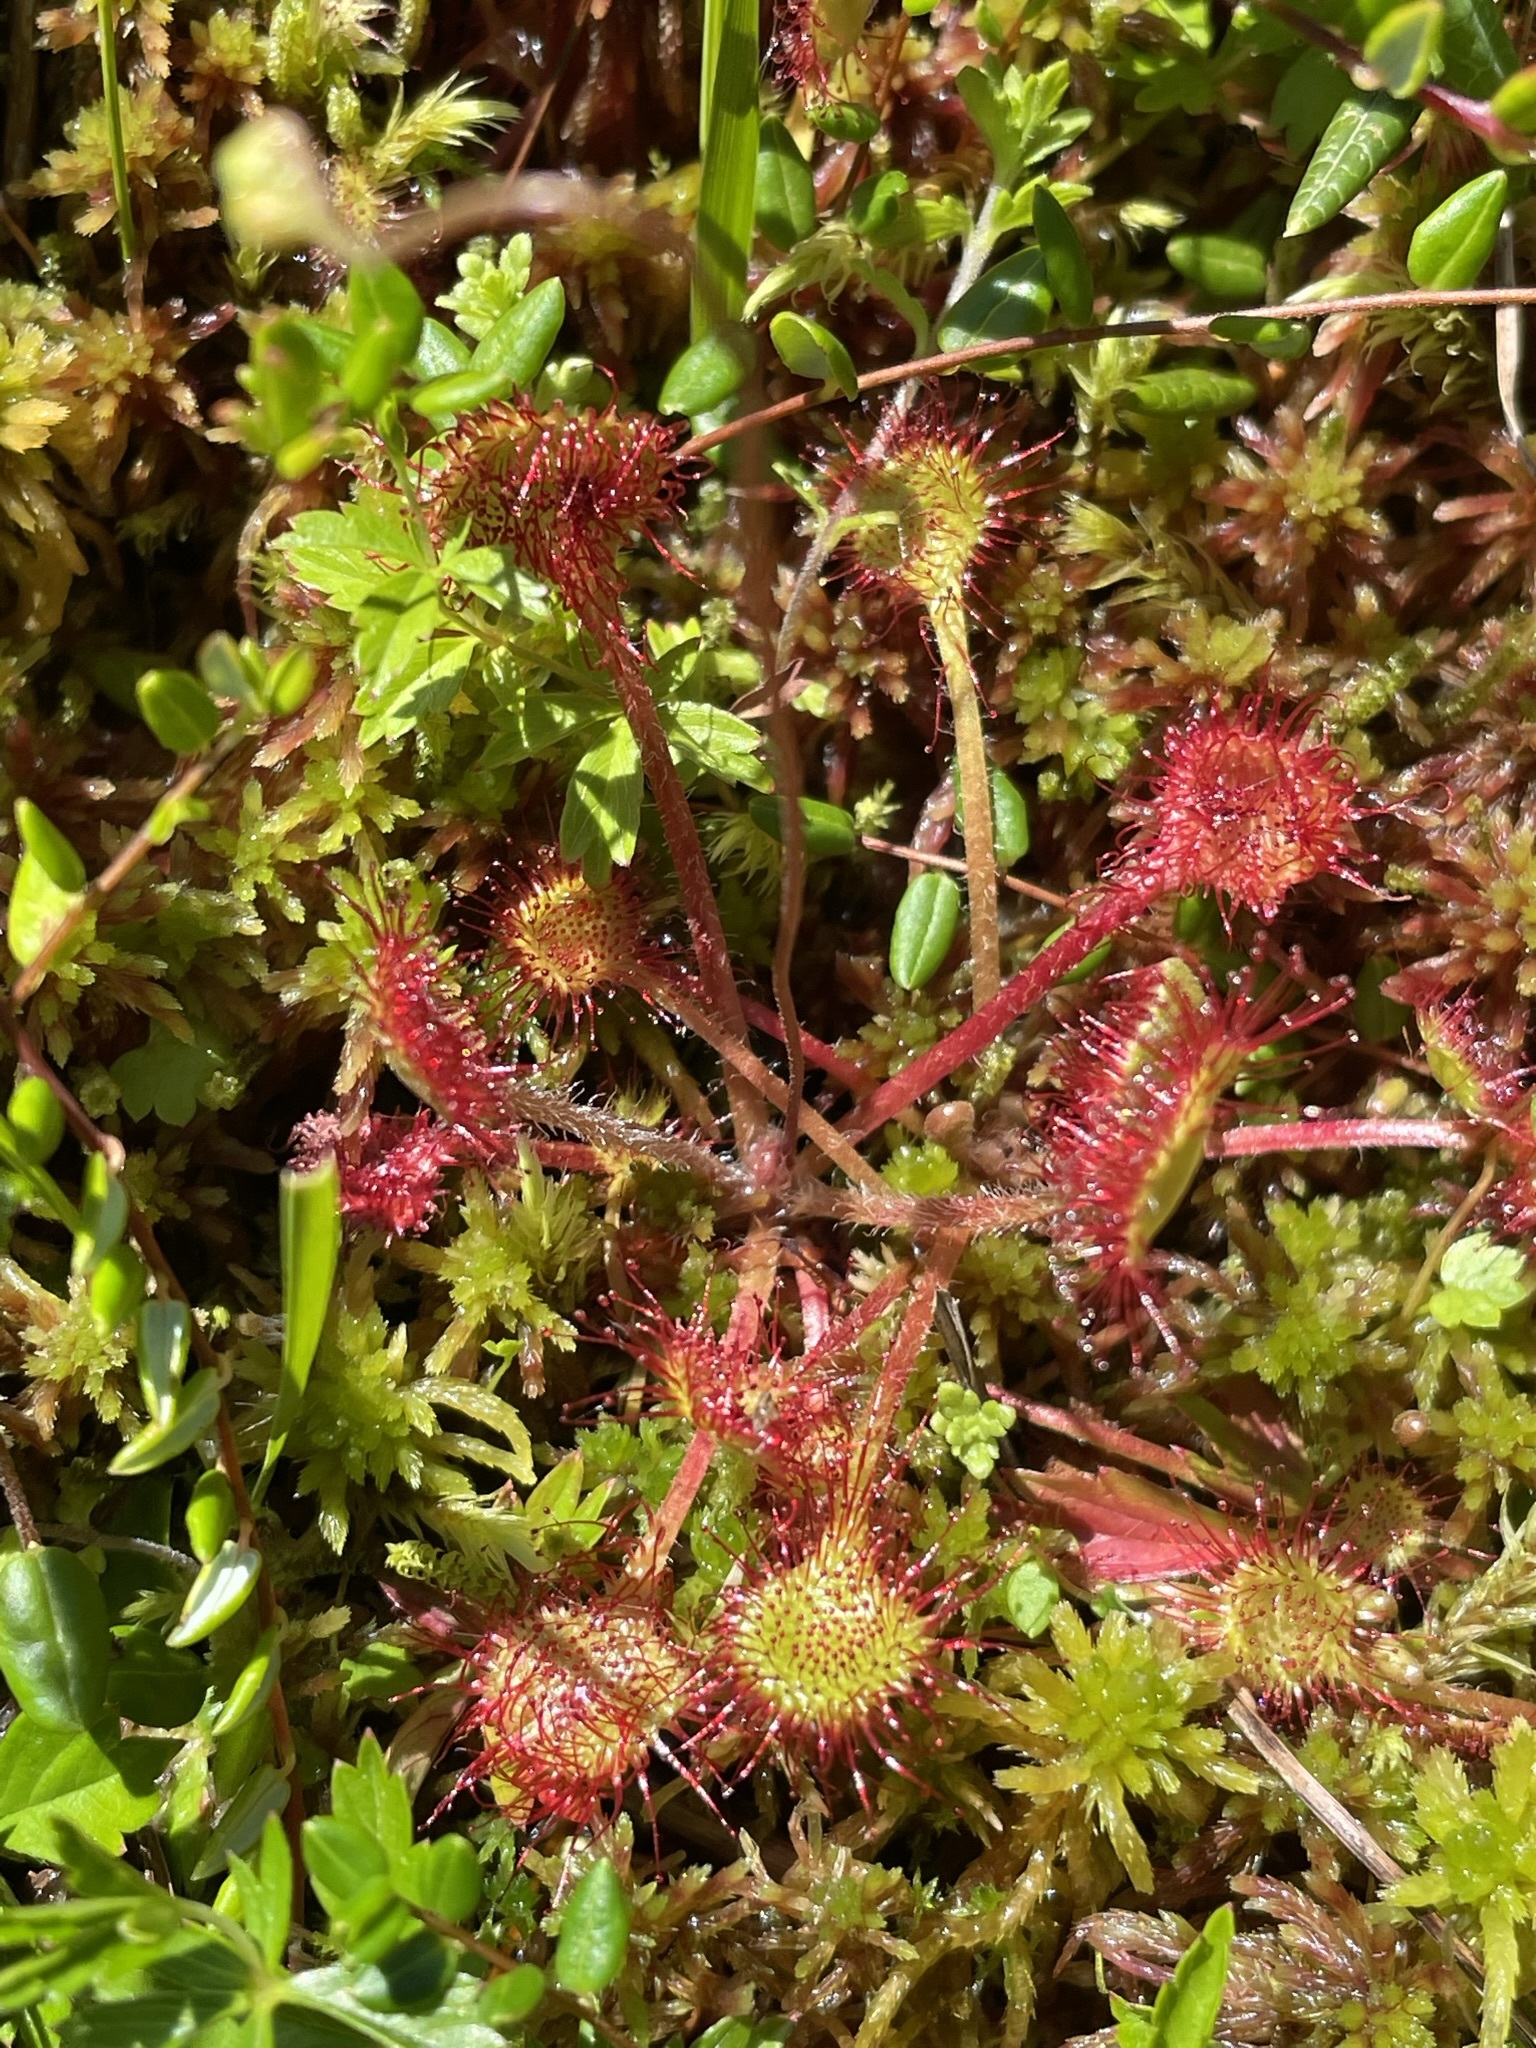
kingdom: Plantae
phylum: Tracheophyta
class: Magnoliopsida
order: Caryophyllales
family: Droseraceae
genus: Drosera
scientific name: Drosera rotundifolia
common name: Round-leaved sundew
